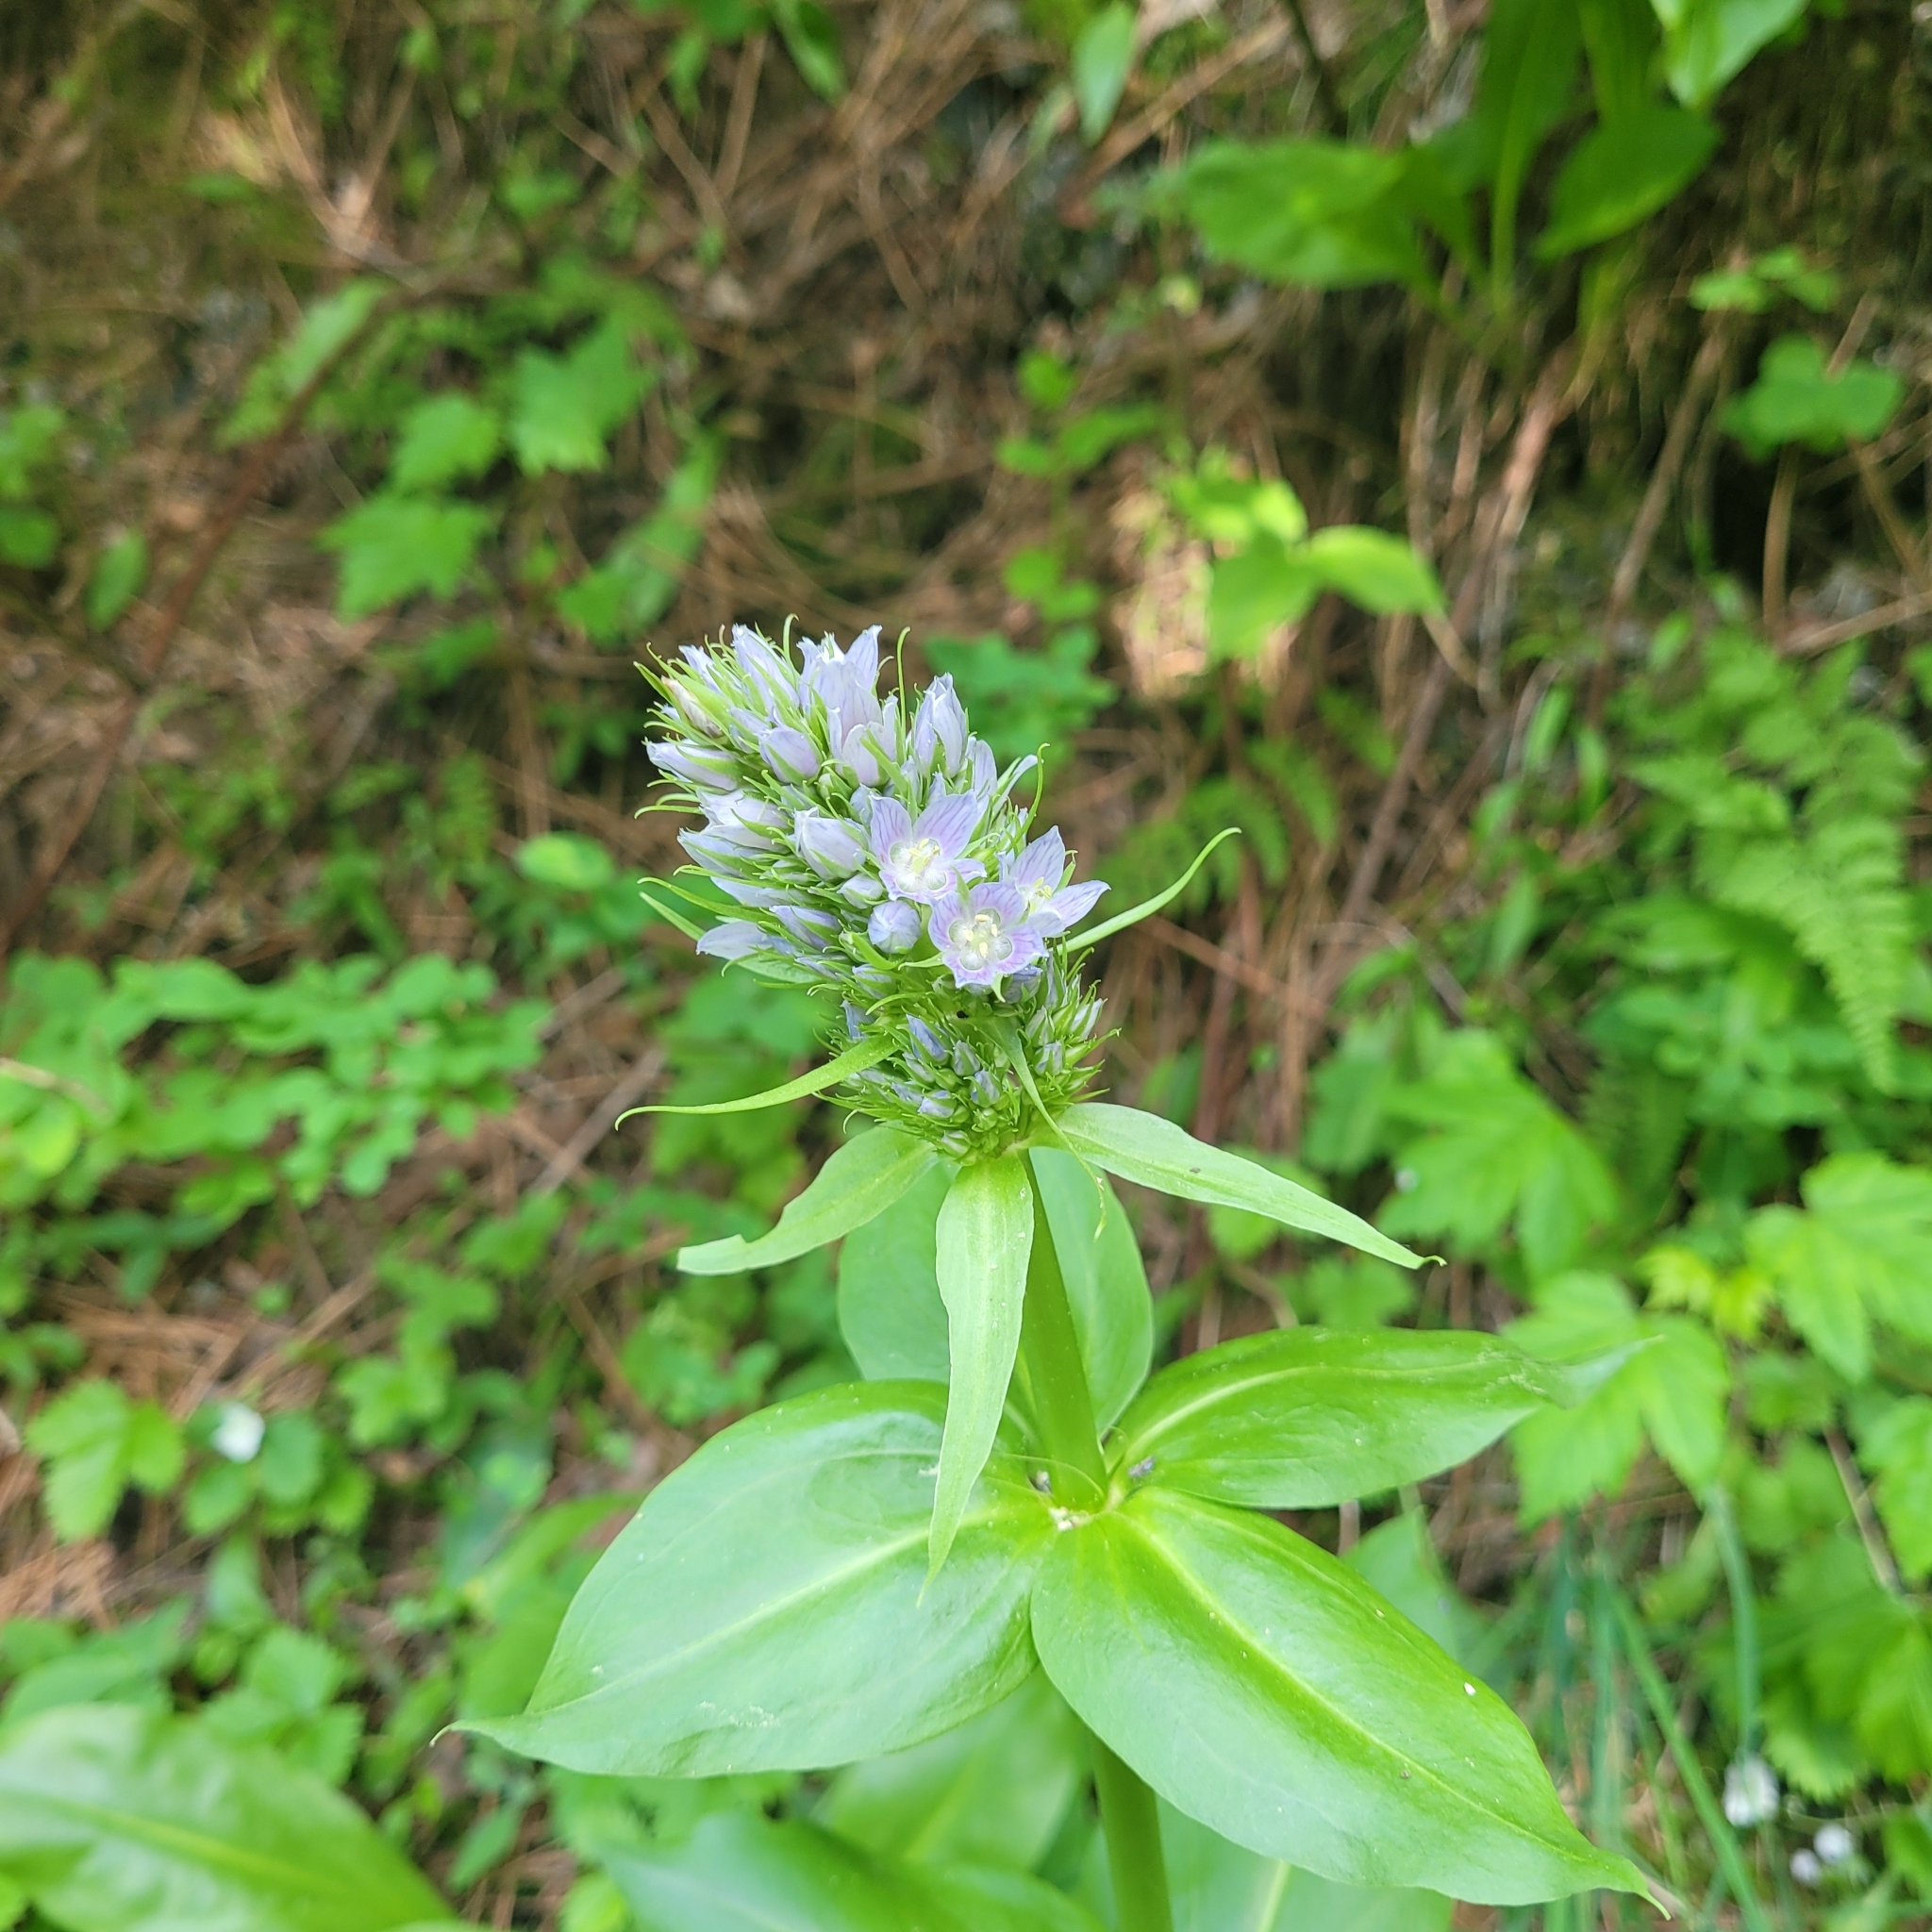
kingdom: Plantae
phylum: Tracheophyta
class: Magnoliopsida
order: Gentianales
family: Gentianaceae
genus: Frasera
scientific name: Frasera fastigiata
